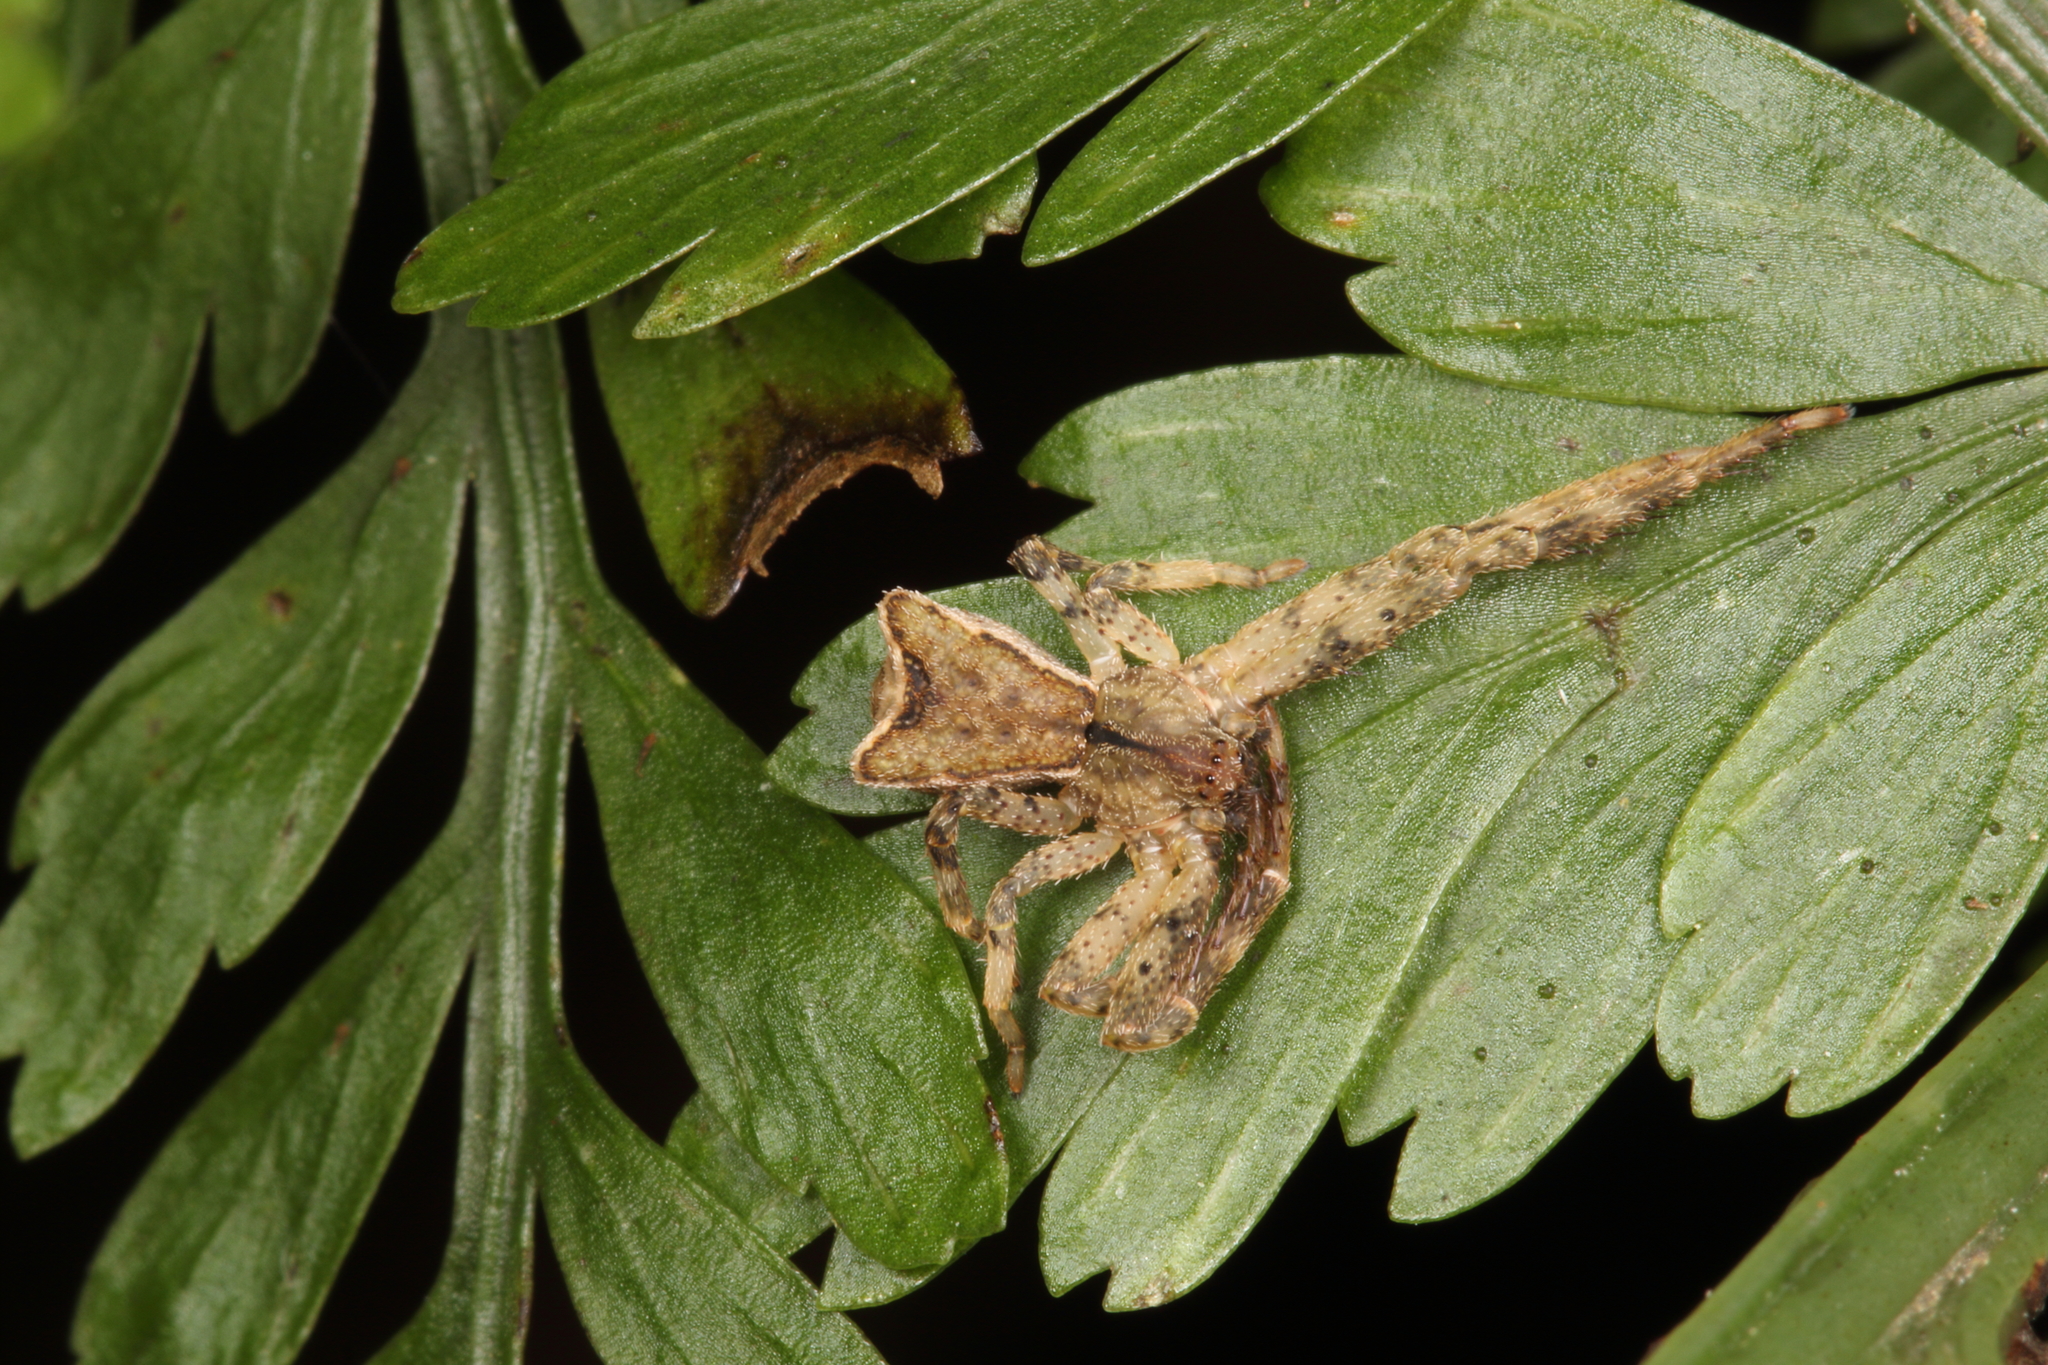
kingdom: Animalia
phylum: Arthropoda
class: Arachnida
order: Araneae
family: Thomisidae
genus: Sidymella
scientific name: Sidymella angularis
